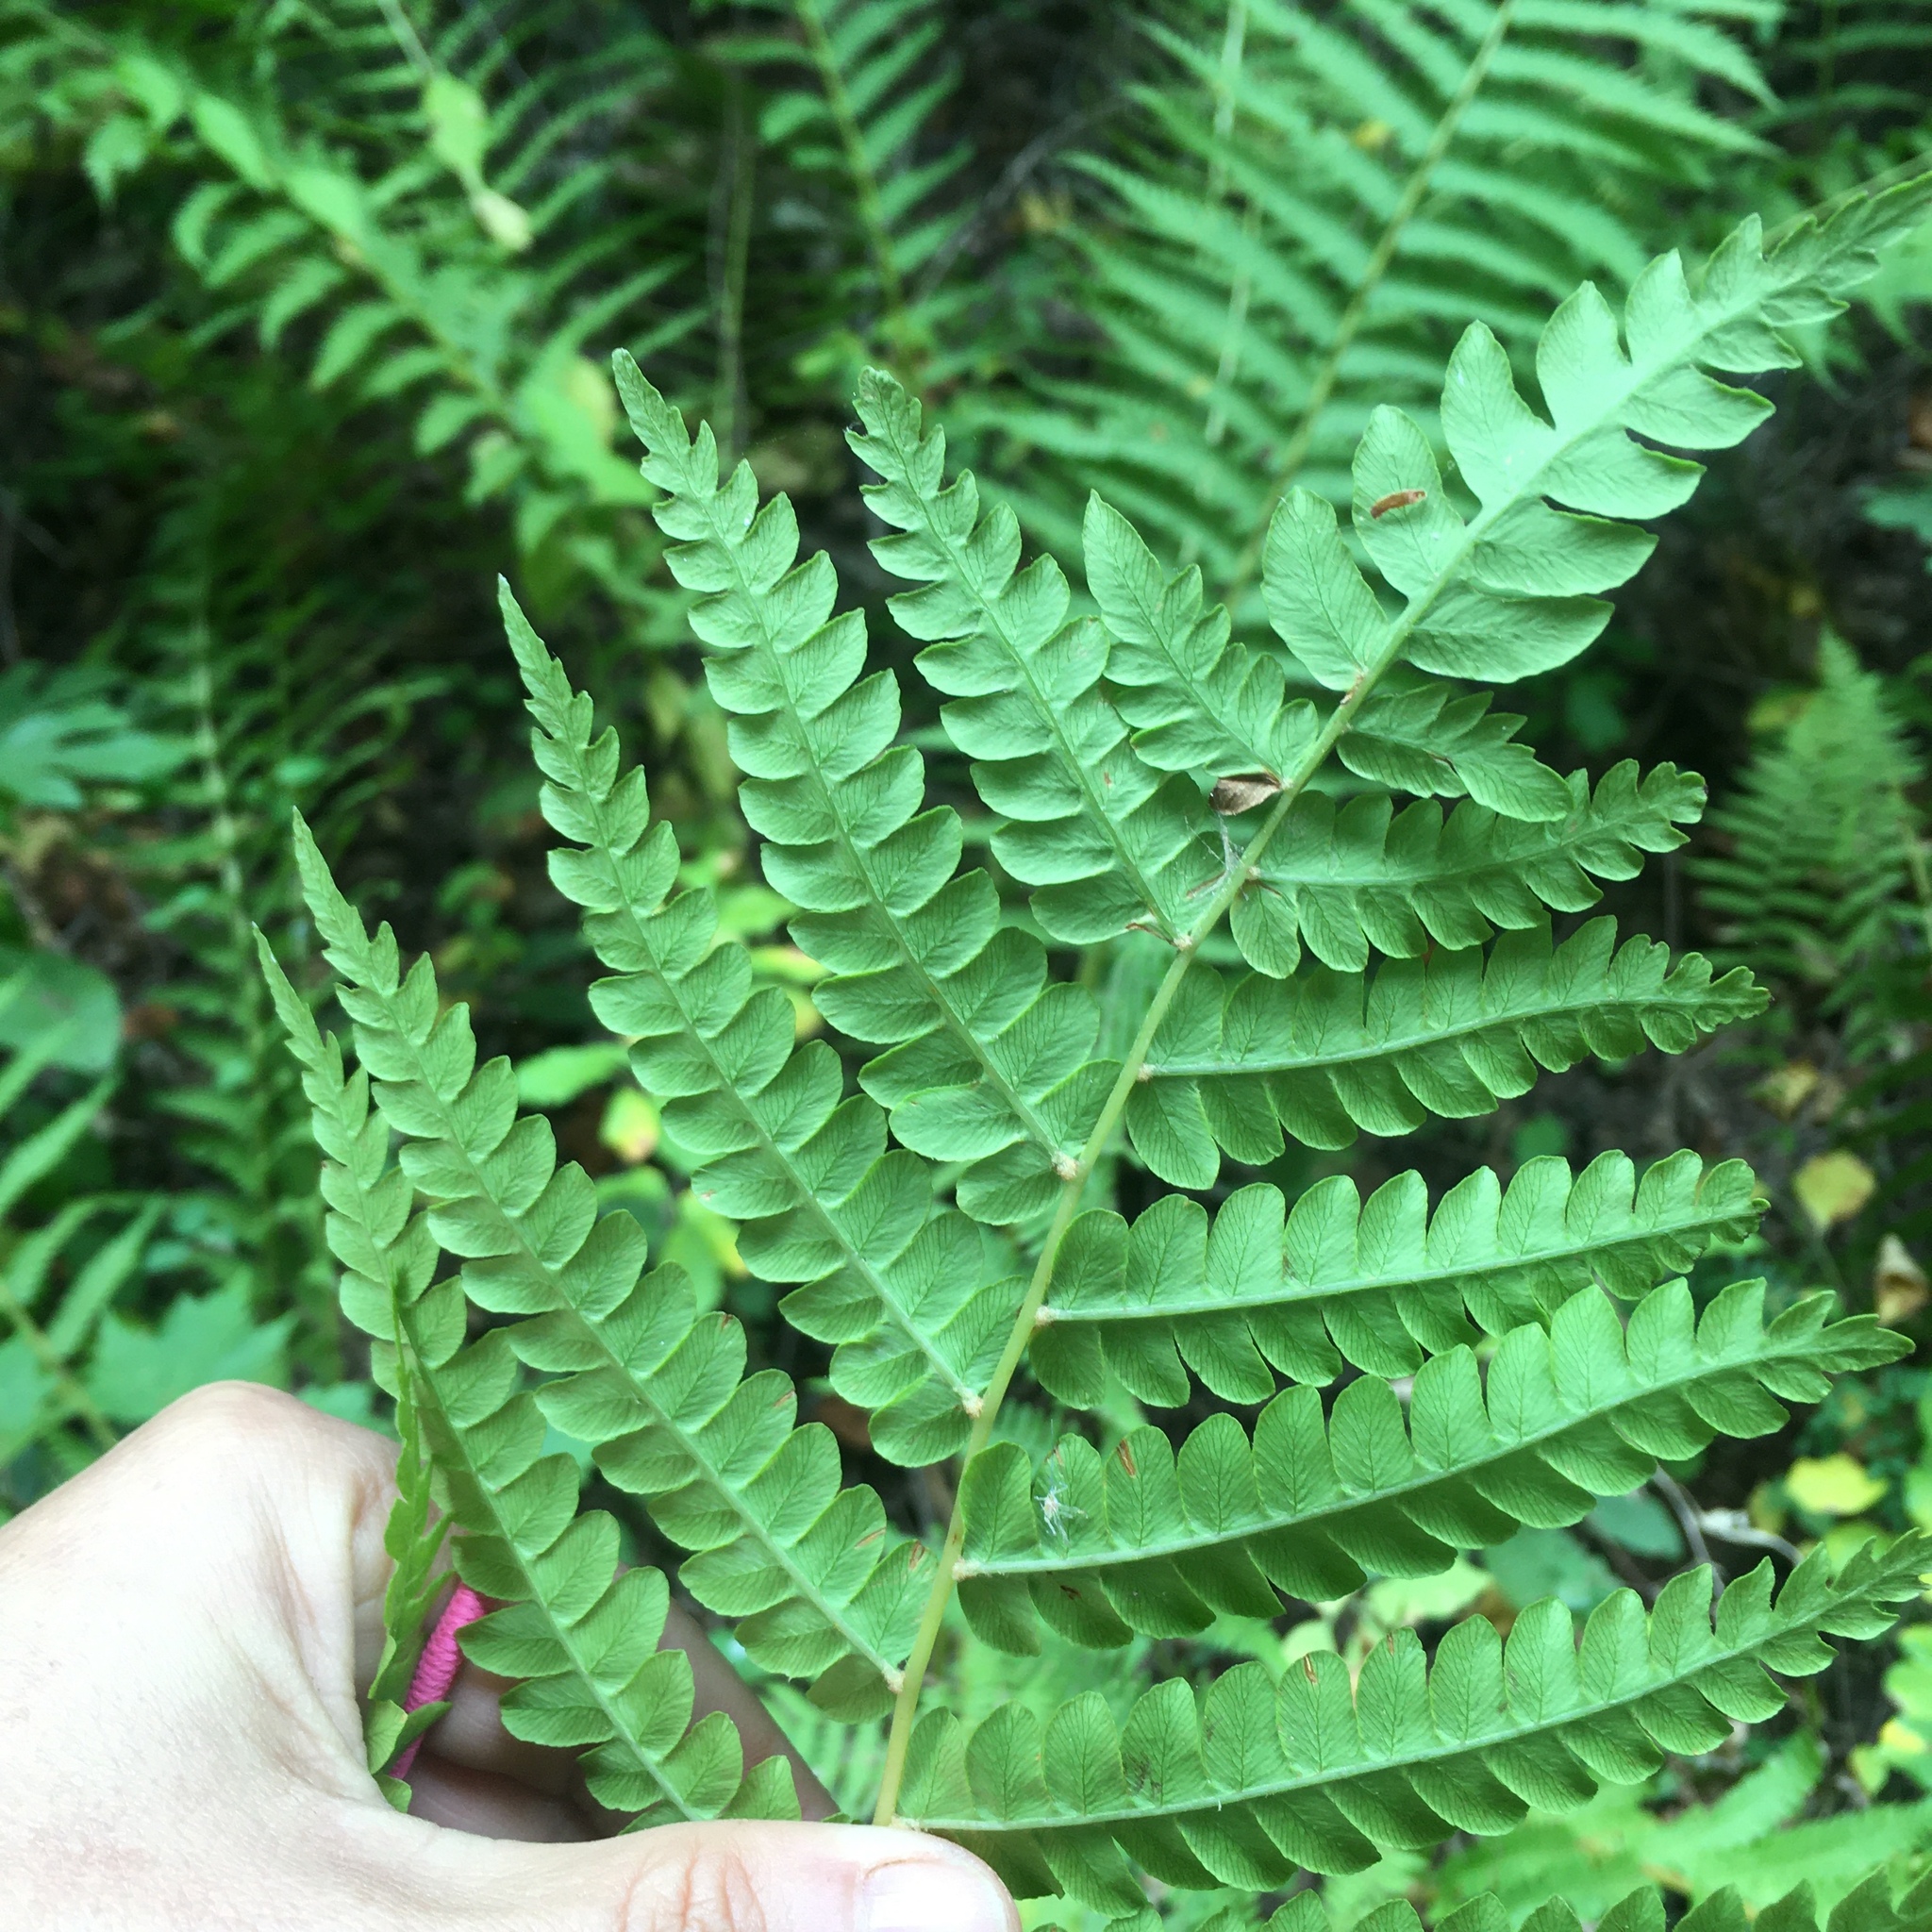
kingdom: Plantae
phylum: Tracheophyta
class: Polypodiopsida
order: Osmundales
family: Osmundaceae
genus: Osmundastrum
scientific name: Osmundastrum cinnamomeum
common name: Cinnamon fern
